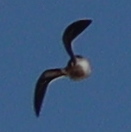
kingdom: Animalia
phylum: Chordata
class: Aves
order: Charadriiformes
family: Scolopacidae
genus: Lymnocryptes
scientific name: Lymnocryptes minimus
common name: Jack snipe
